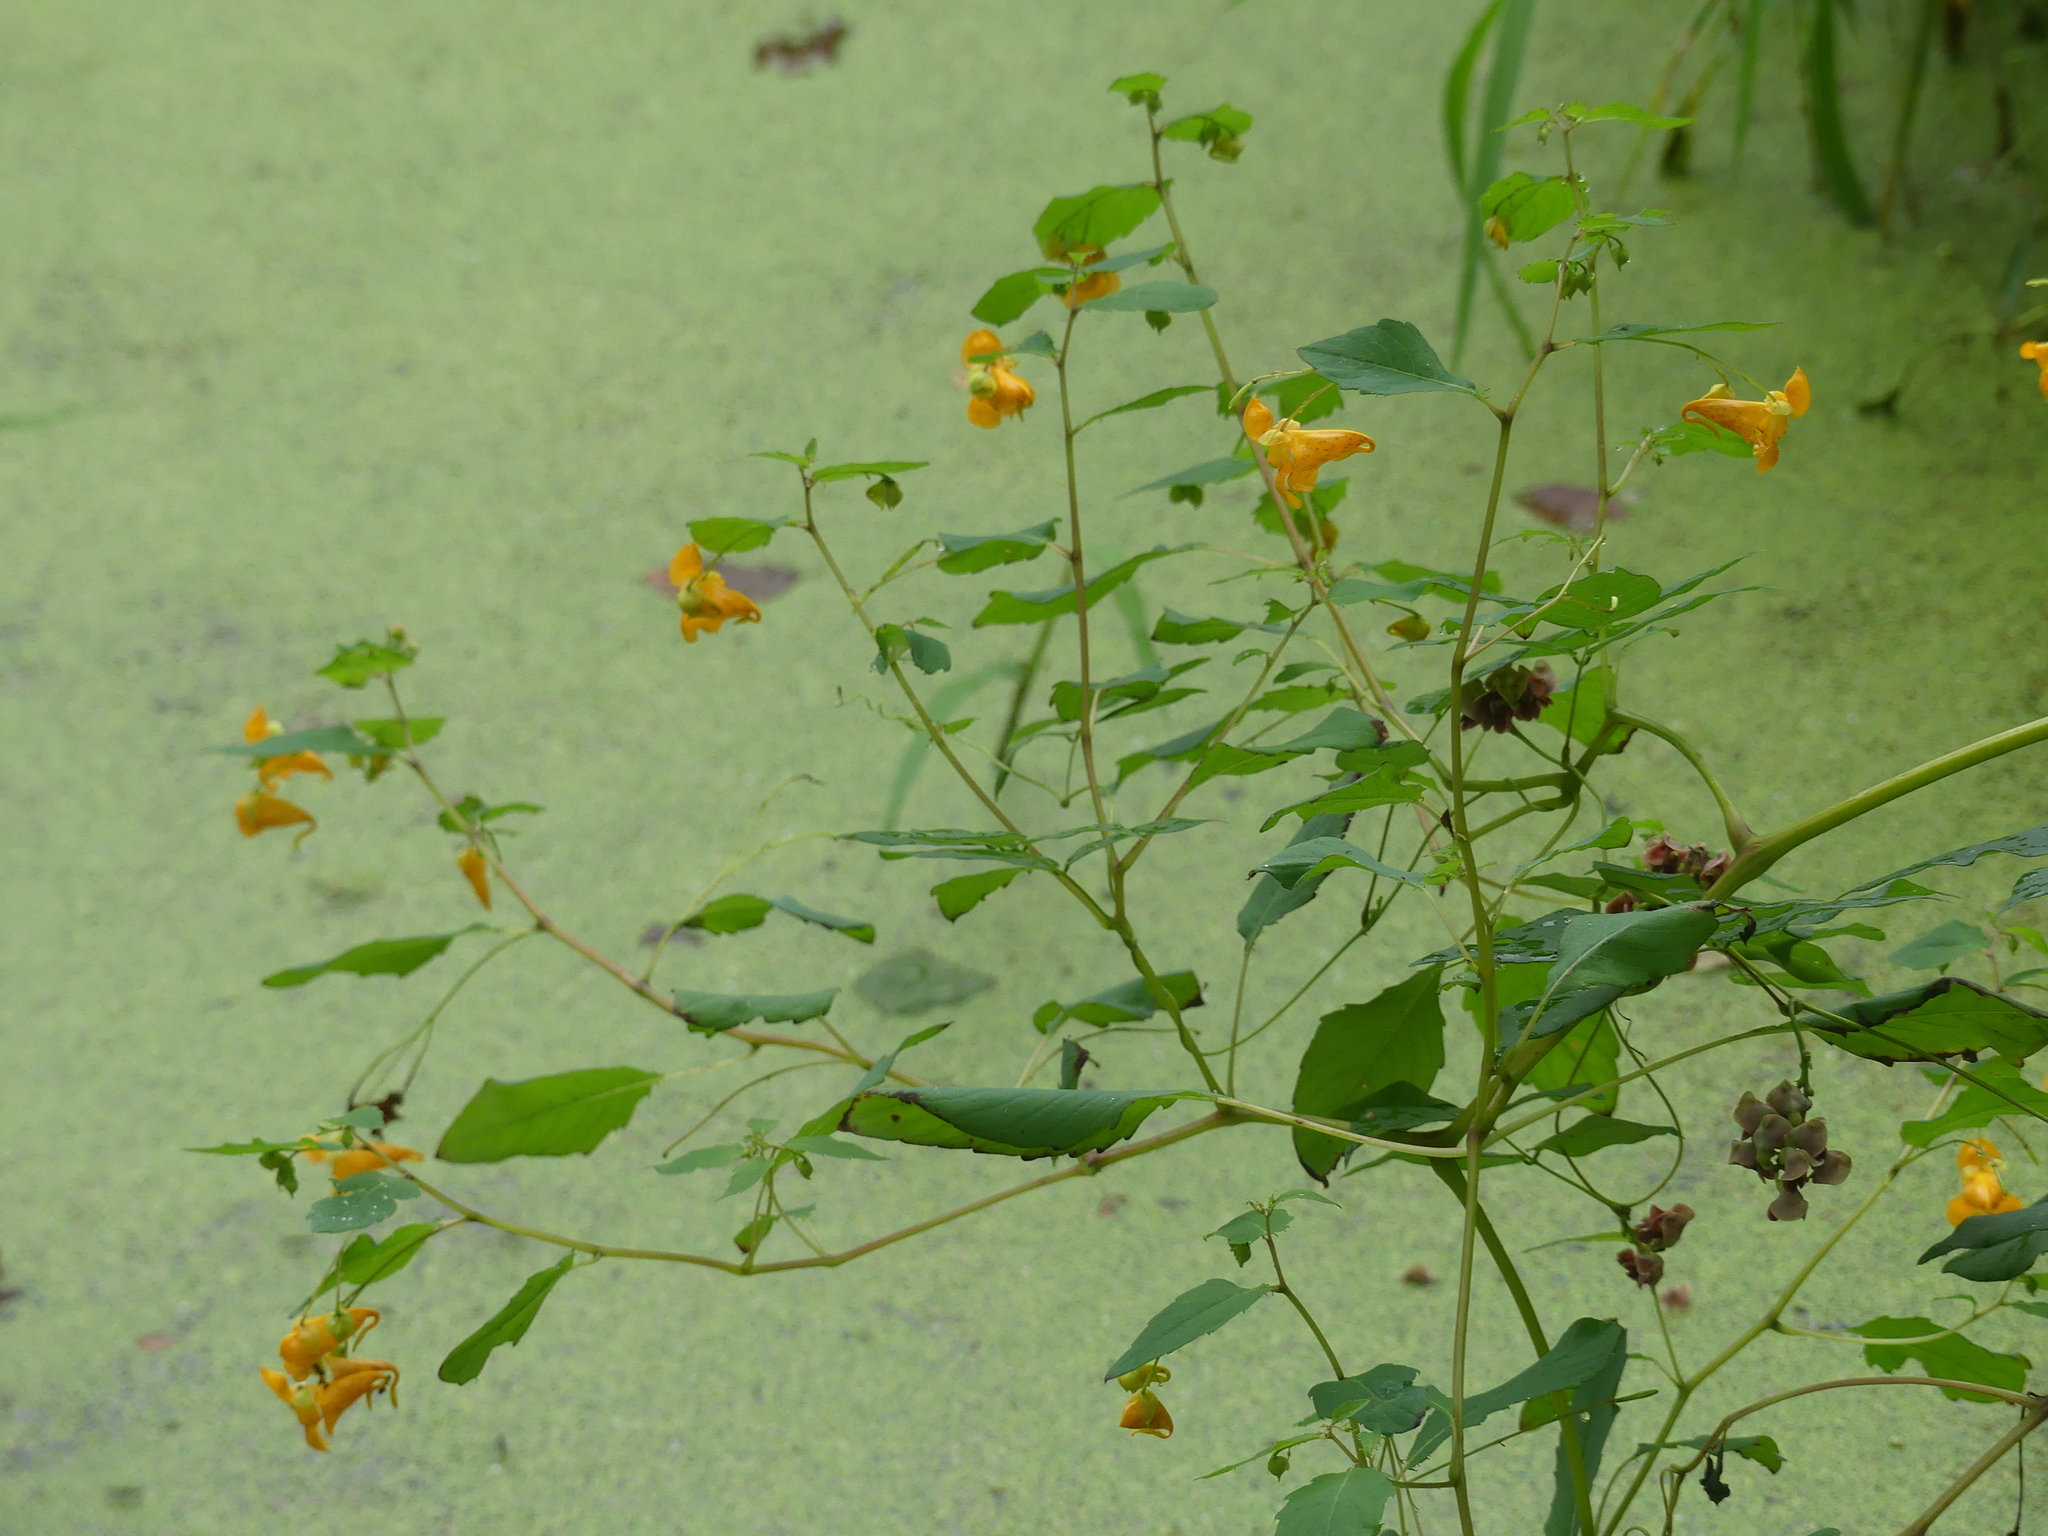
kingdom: Plantae
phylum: Tracheophyta
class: Magnoliopsida
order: Ericales
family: Balsaminaceae
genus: Impatiens
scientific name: Impatiens capensis
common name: Orange balsam
